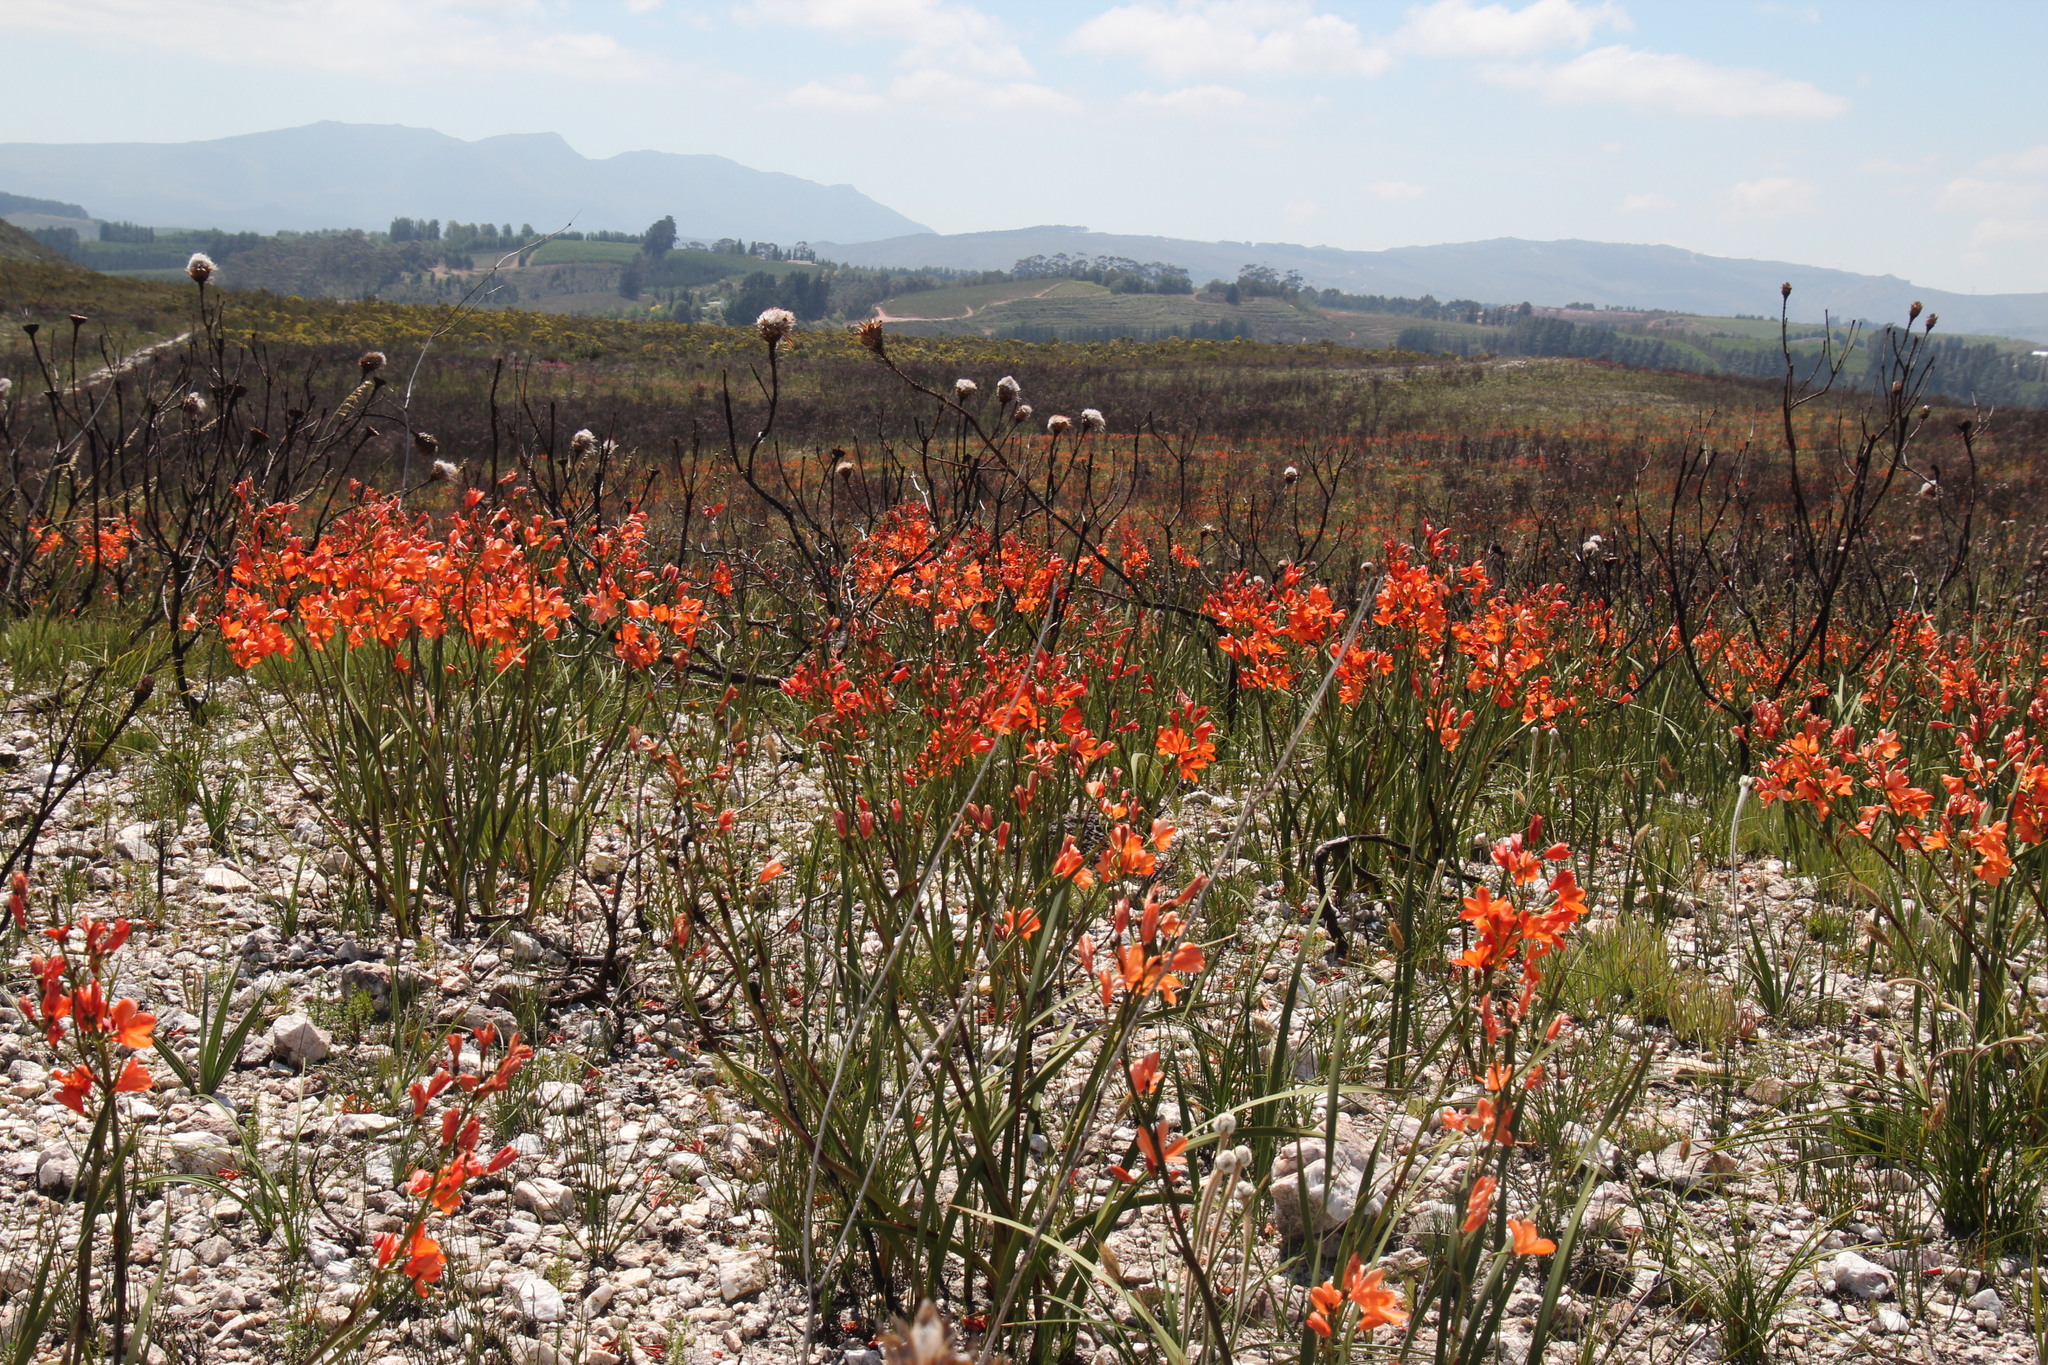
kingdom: Plantae
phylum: Tracheophyta
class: Liliopsida
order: Asparagales
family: Iridaceae
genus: Pillansia
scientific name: Pillansia templemannii
